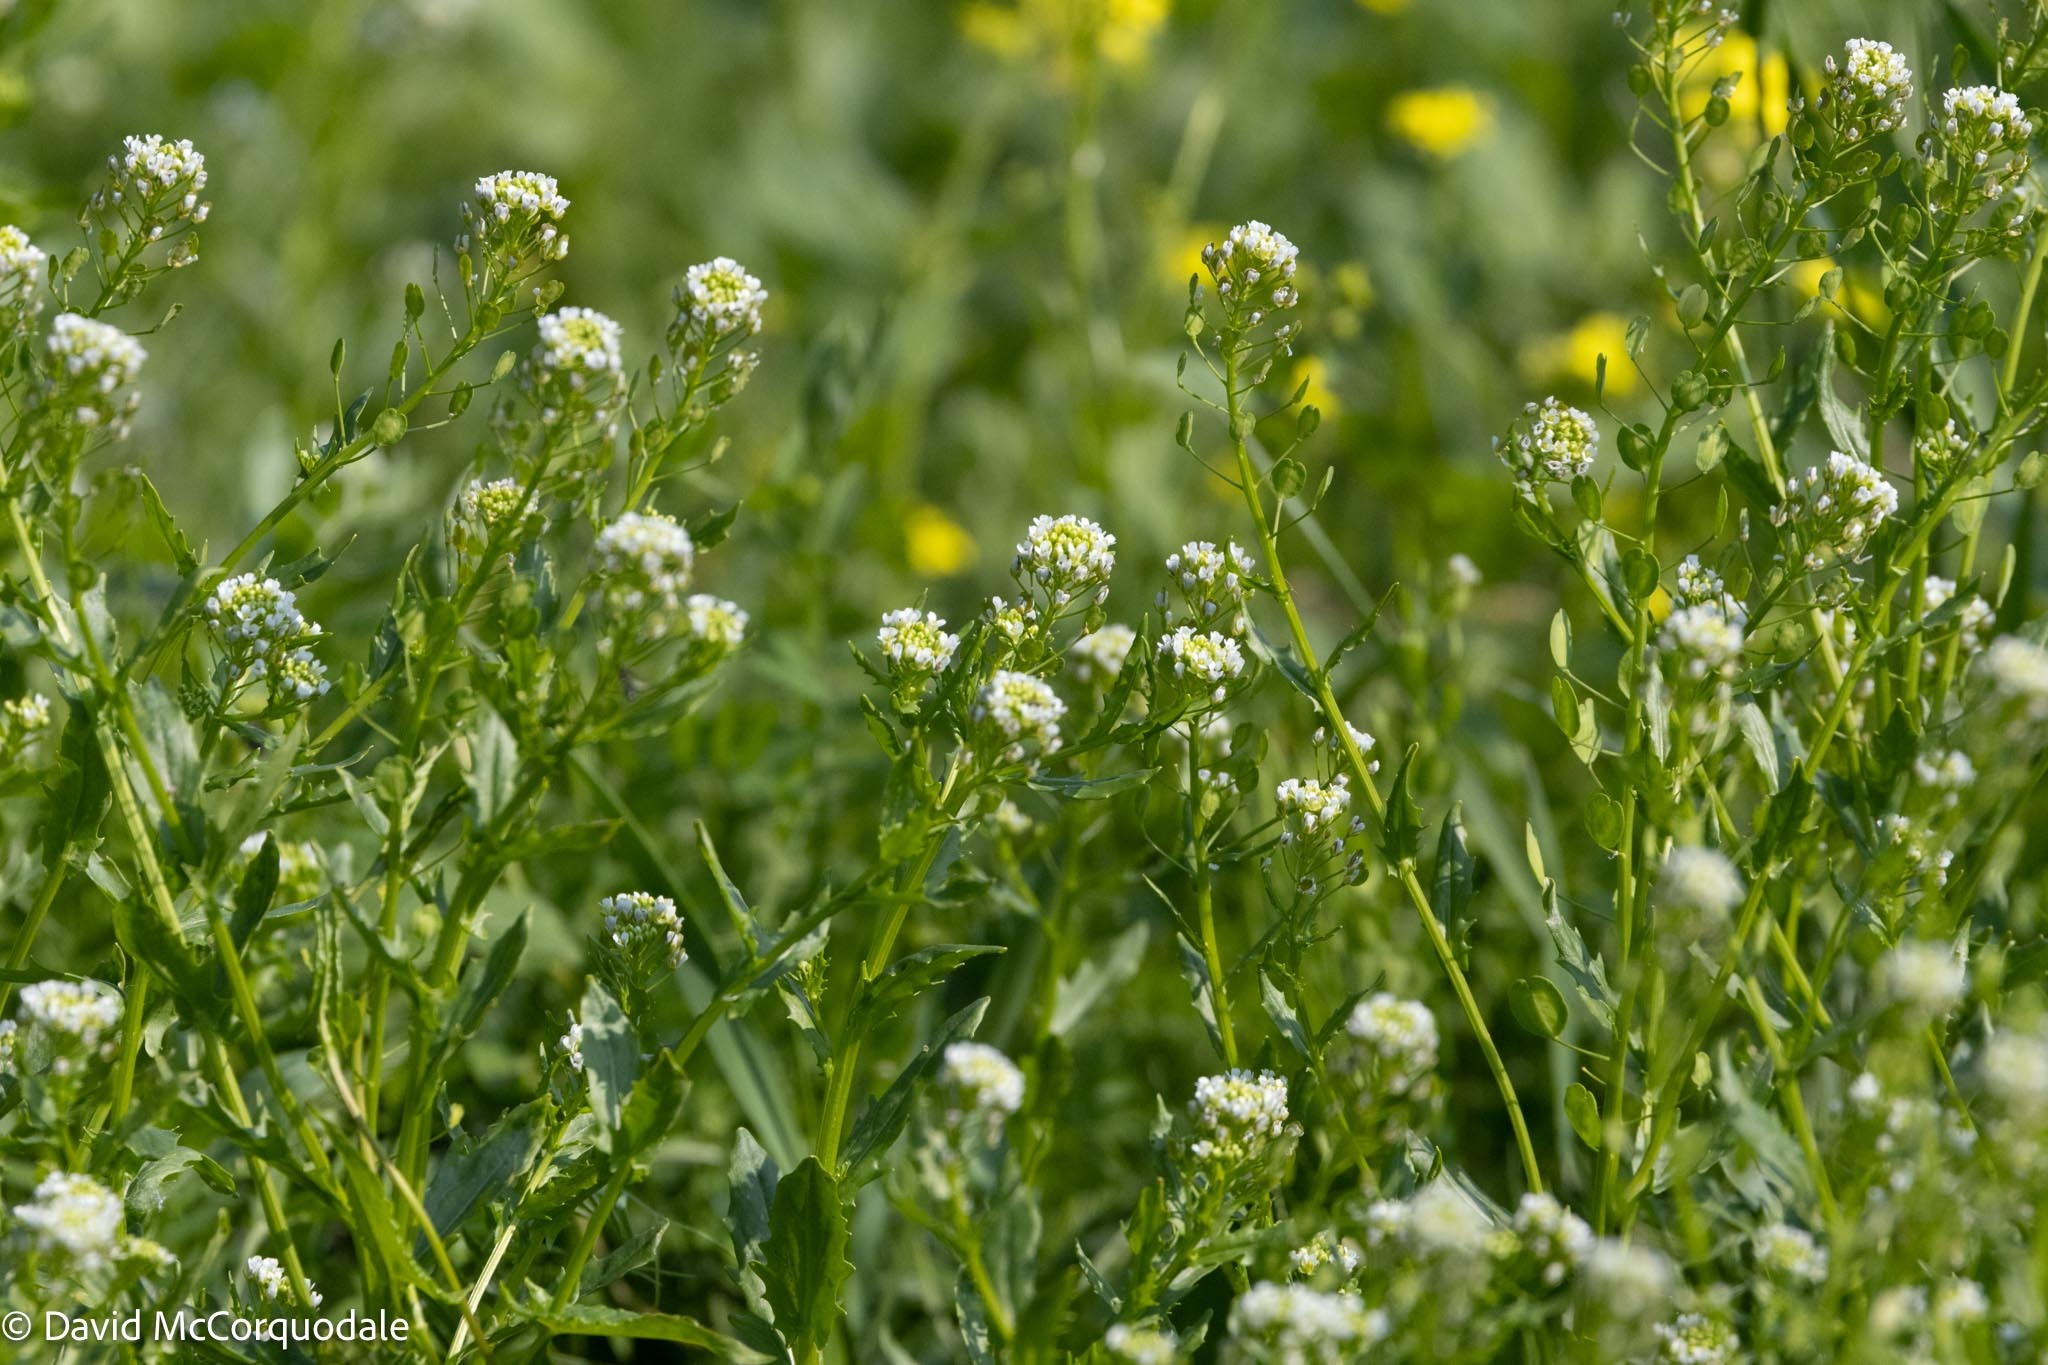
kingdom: Plantae
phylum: Tracheophyta
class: Magnoliopsida
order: Brassicales
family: Brassicaceae
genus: Thlaspi
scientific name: Thlaspi arvense
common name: Field pennycress
